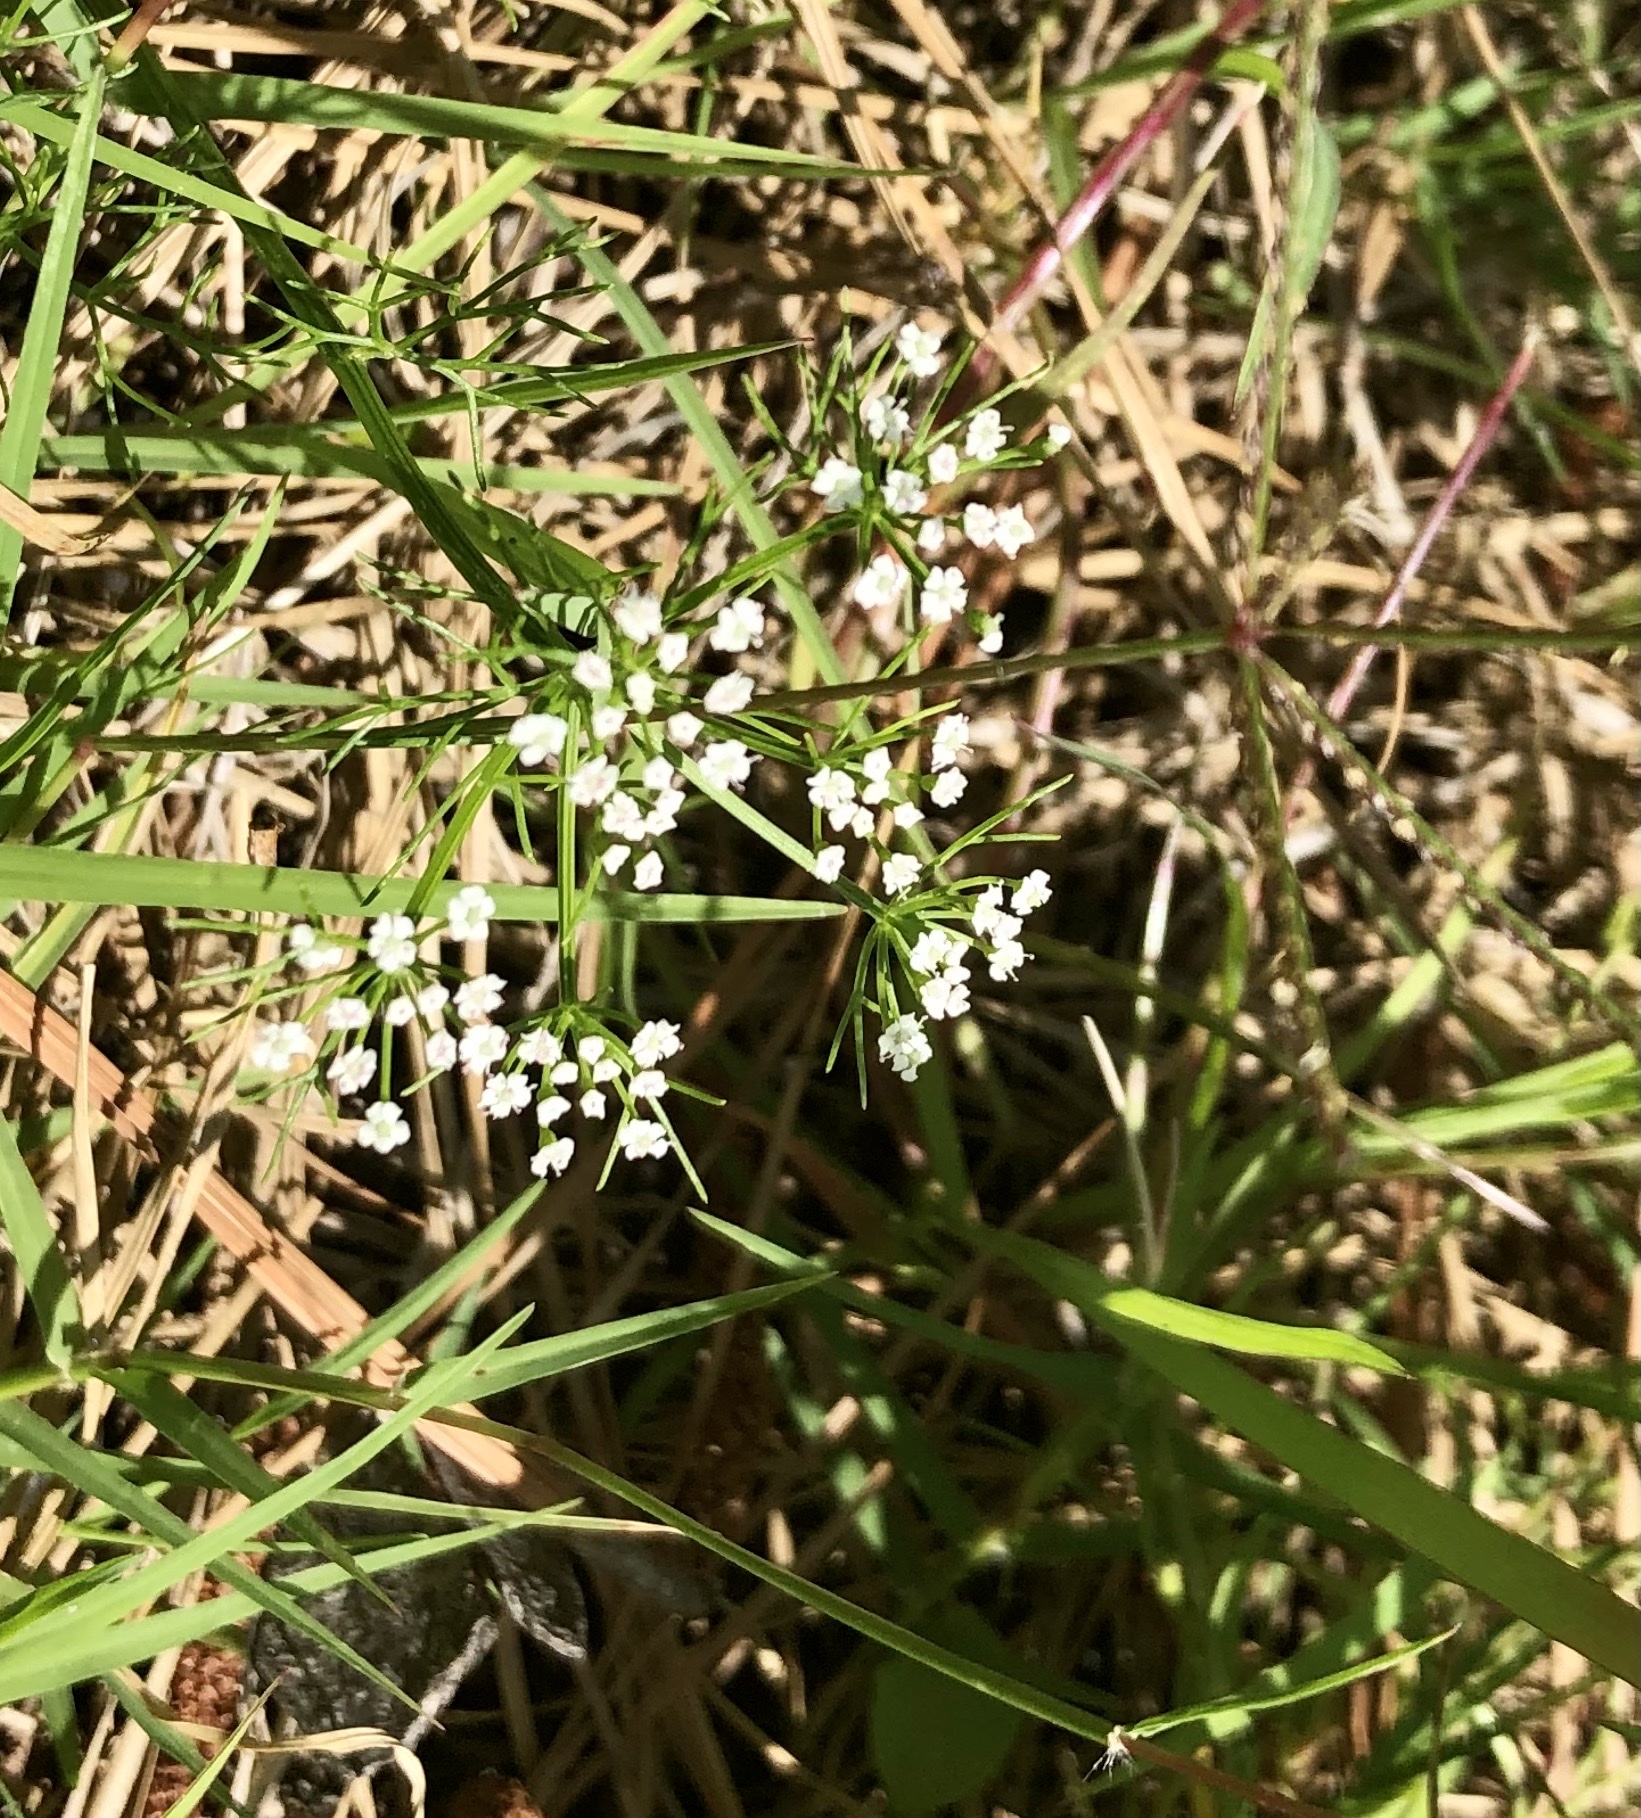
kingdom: Plantae
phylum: Tracheophyta
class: Magnoliopsida
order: Apiales
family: Apiaceae
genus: Ptilimnium
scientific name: Ptilimnium capillaceum
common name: Herbwilliam
